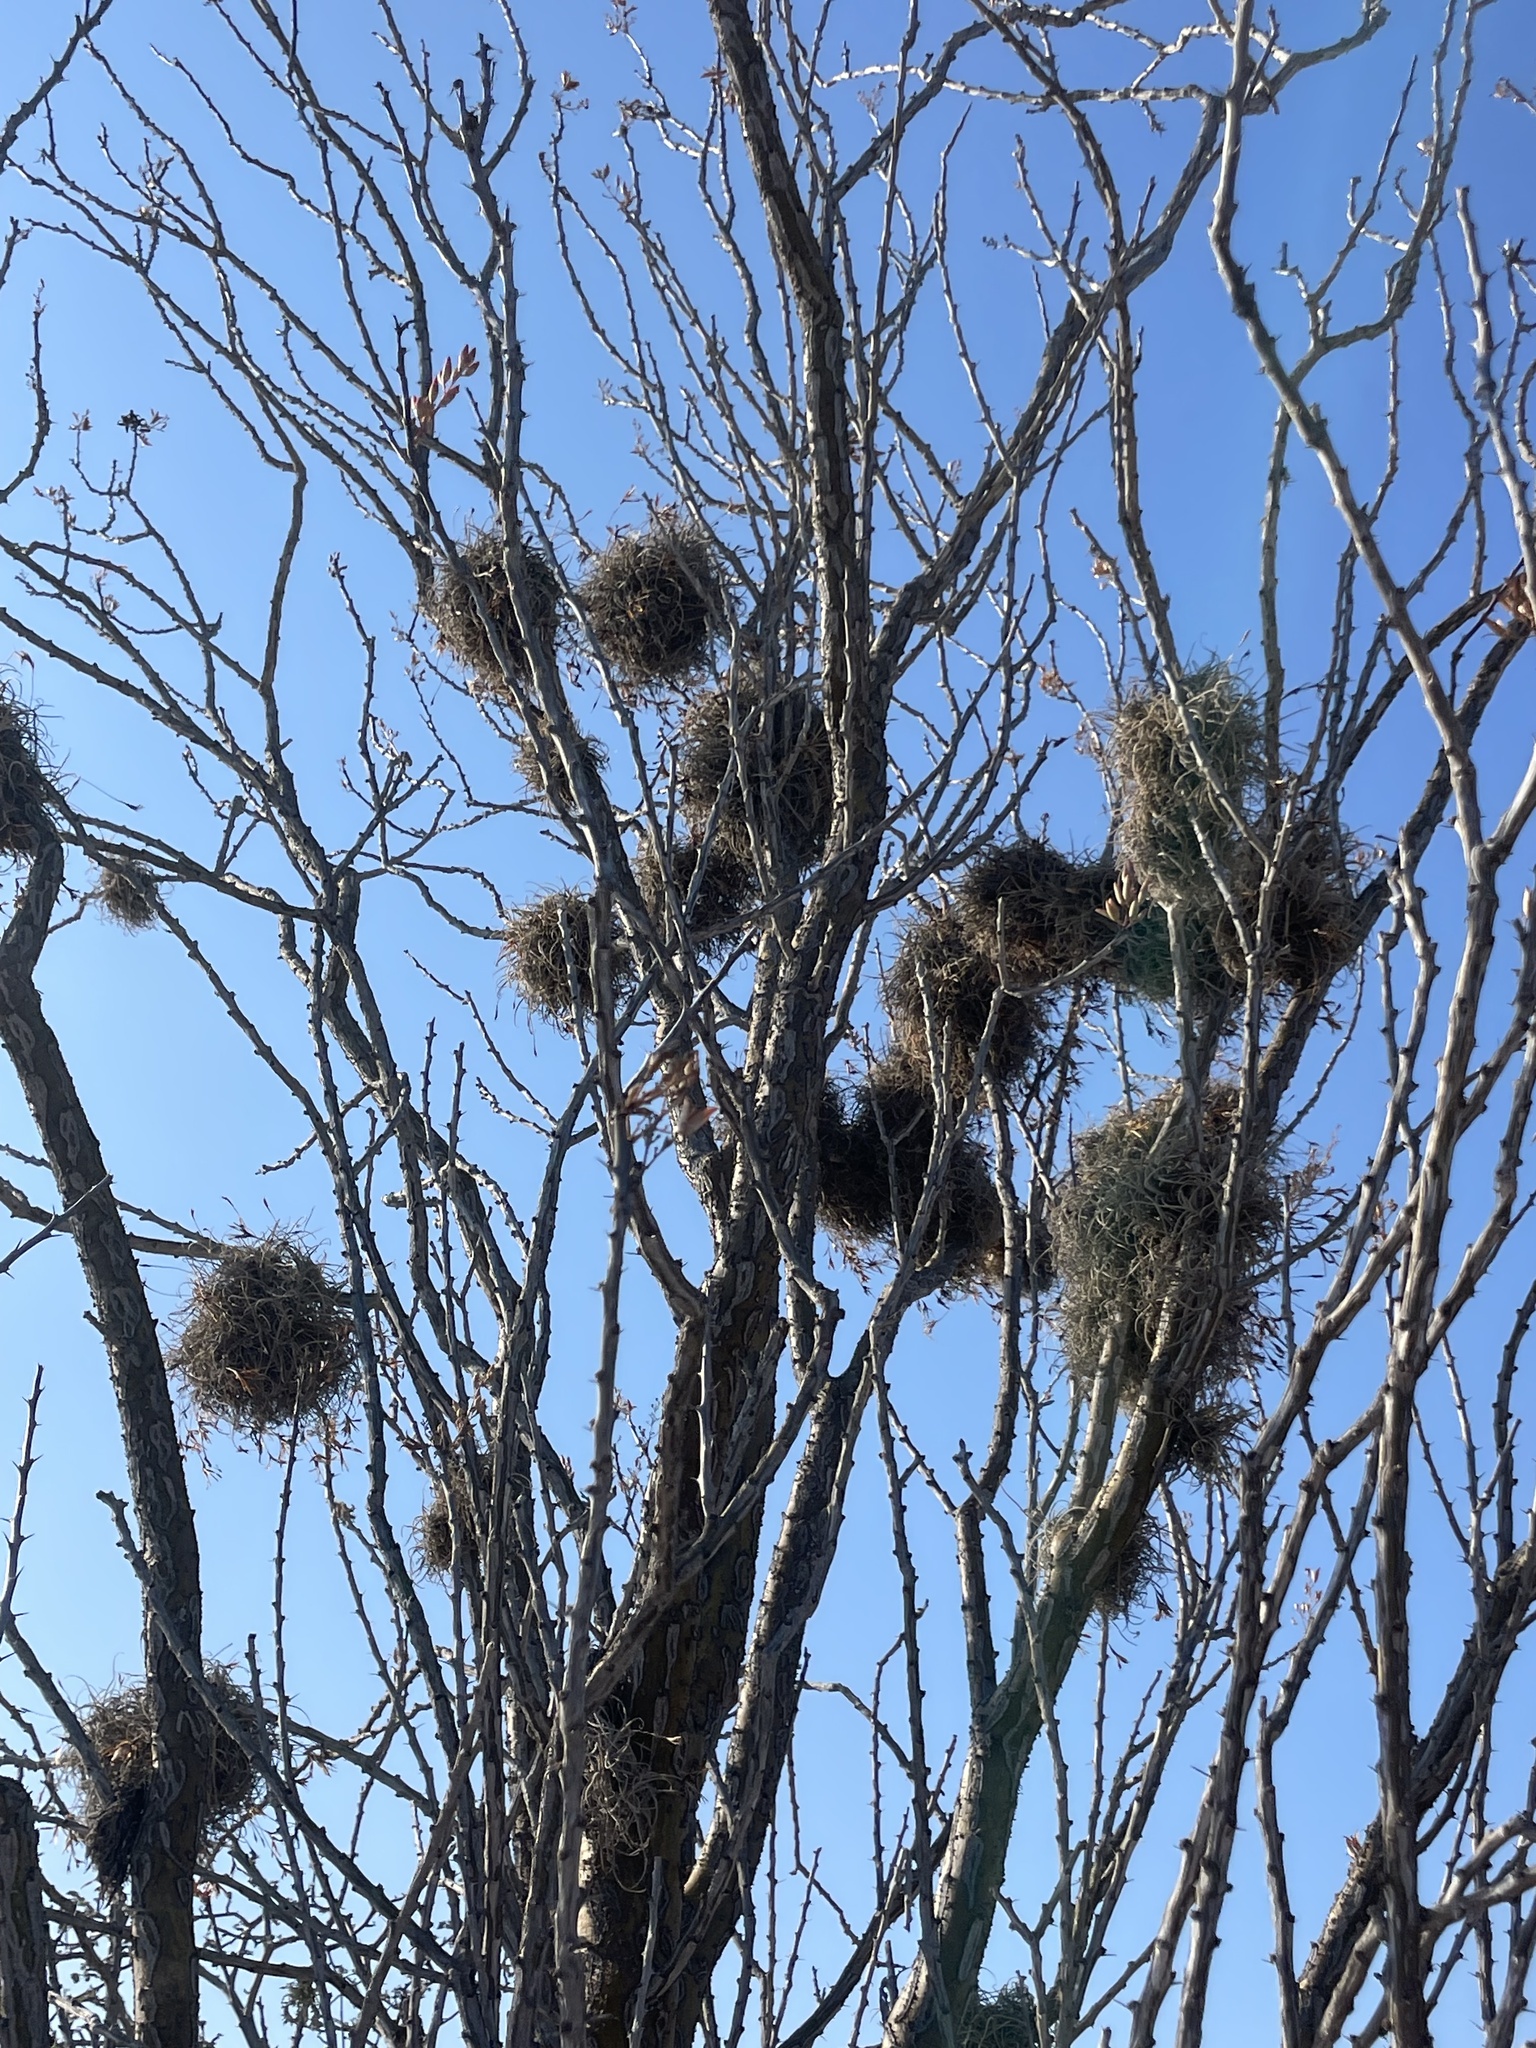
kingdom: Plantae
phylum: Tracheophyta
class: Liliopsida
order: Poales
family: Bromeliaceae
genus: Tillandsia
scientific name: Tillandsia recurvata
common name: Small ballmoss
